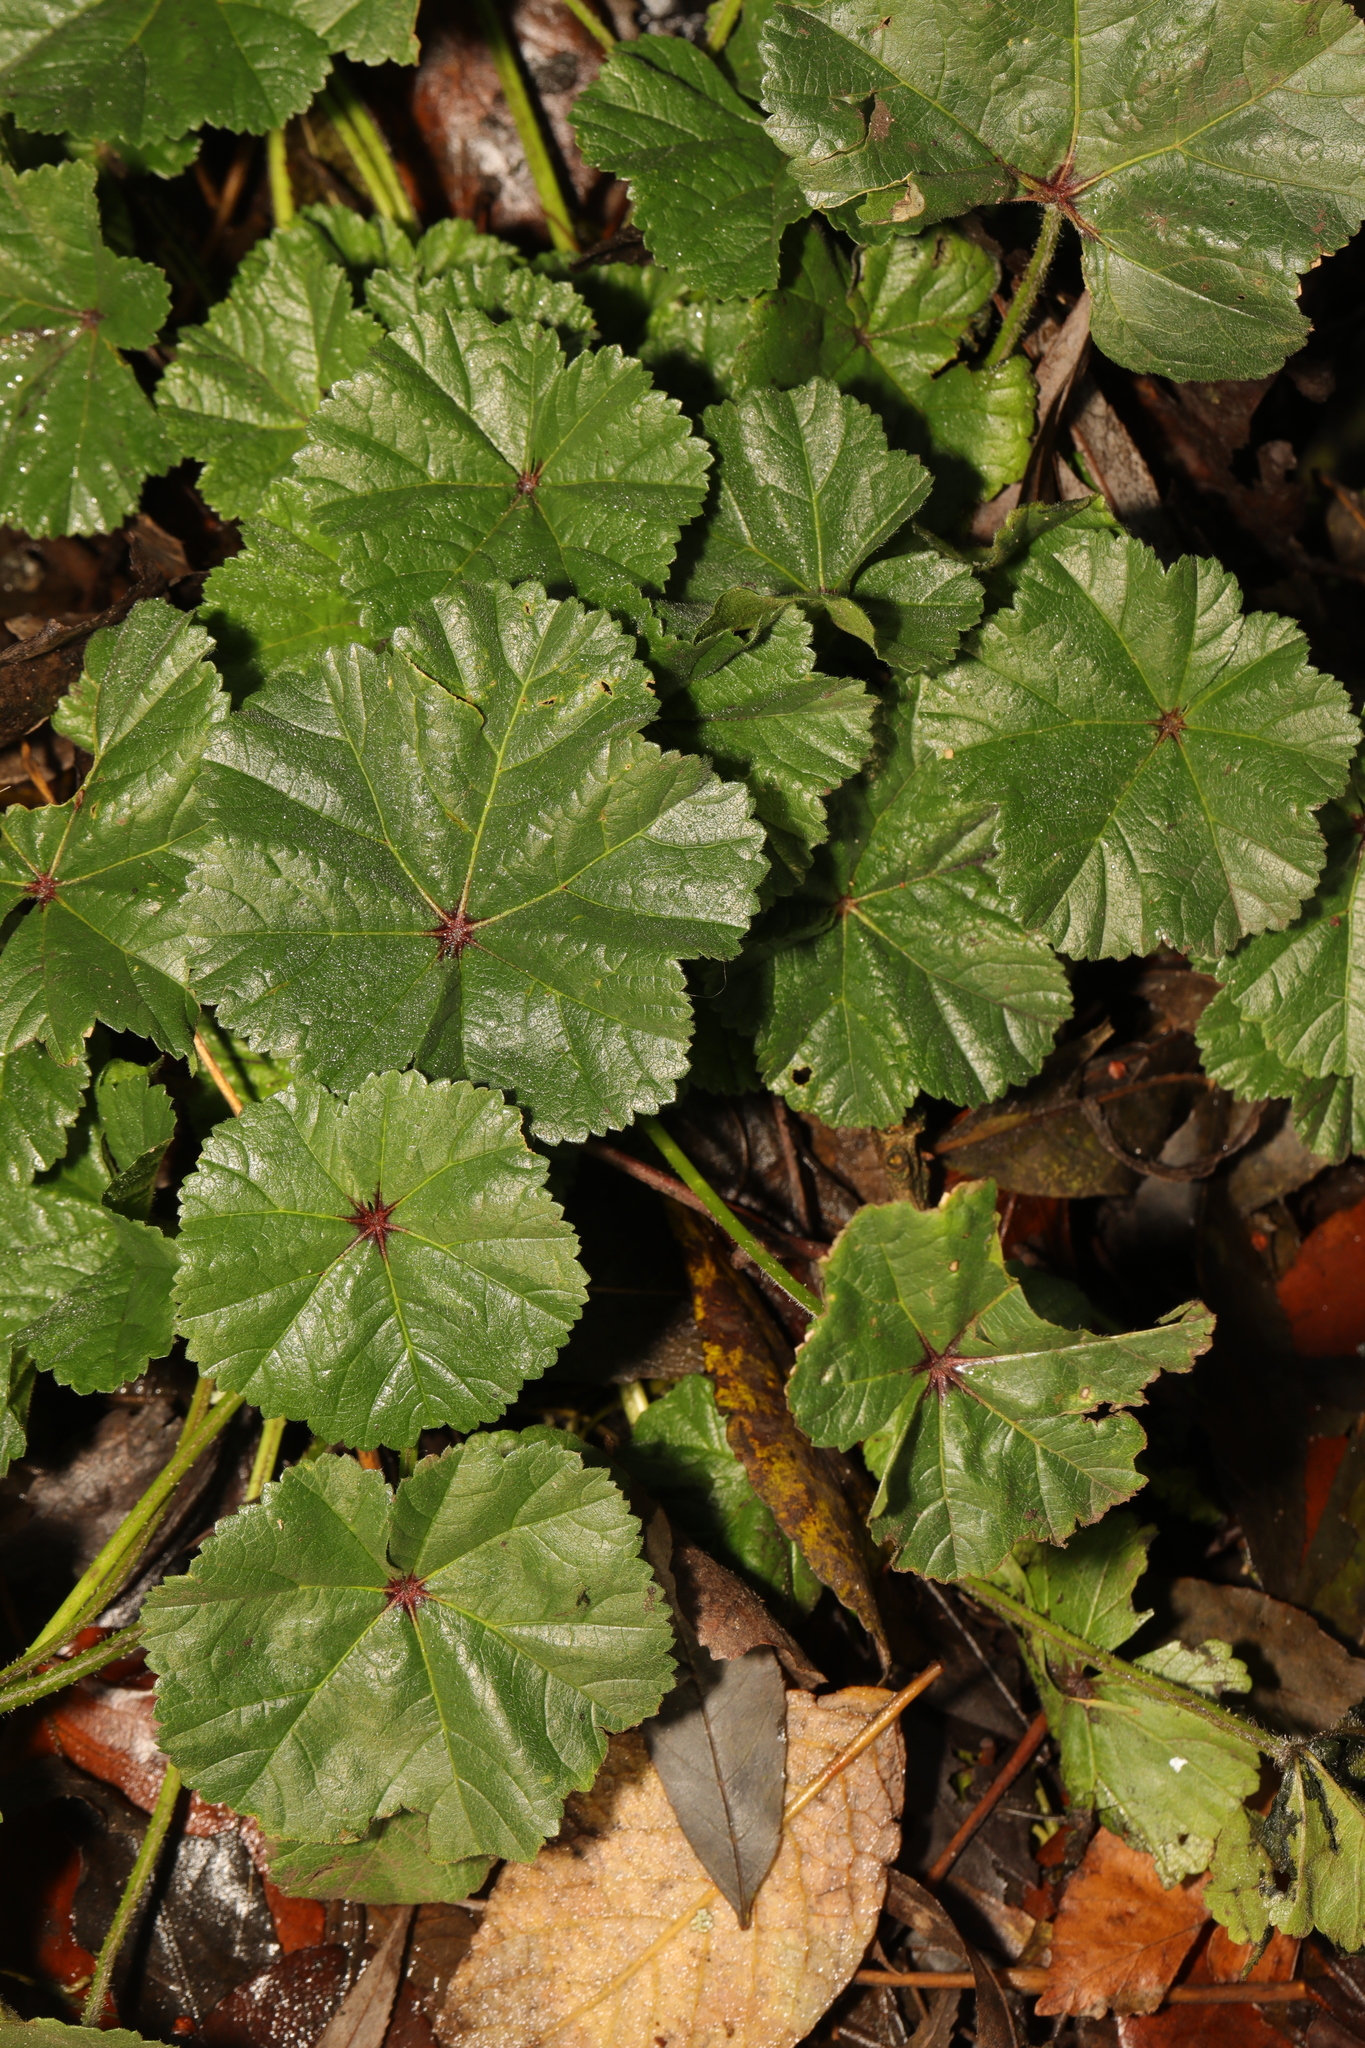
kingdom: Plantae
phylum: Tracheophyta
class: Magnoliopsida
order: Malvales
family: Malvaceae
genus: Malva
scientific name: Malva sylvestris
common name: Common mallow
